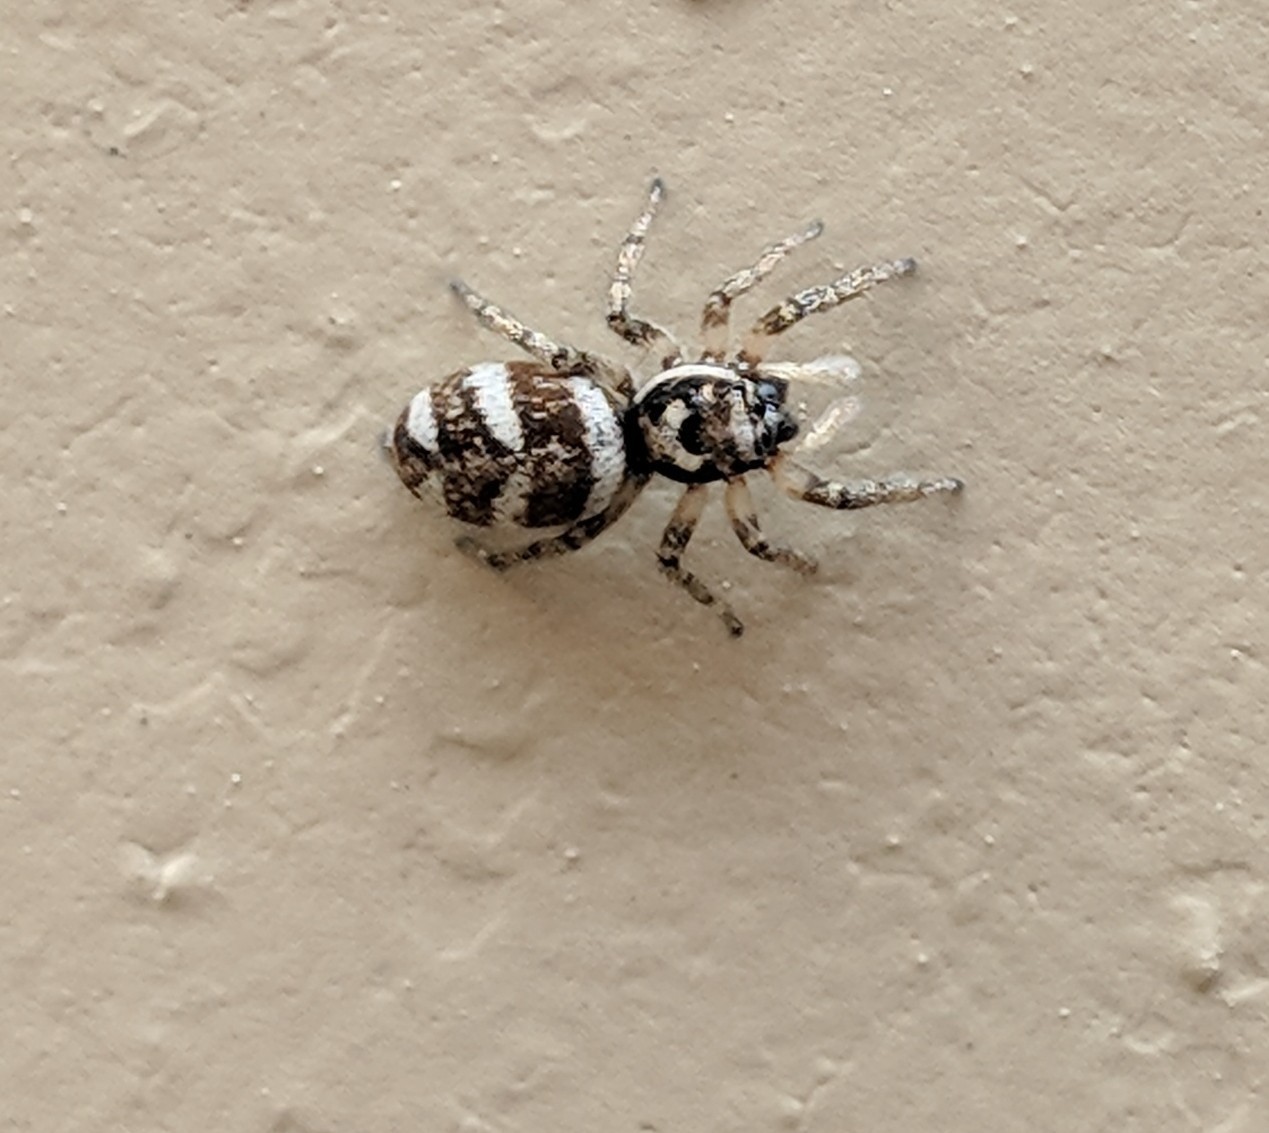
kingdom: Animalia
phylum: Arthropoda
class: Arachnida
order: Araneae
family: Salticidae
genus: Salticus
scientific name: Salticus scenicus
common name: Zebra jumper
